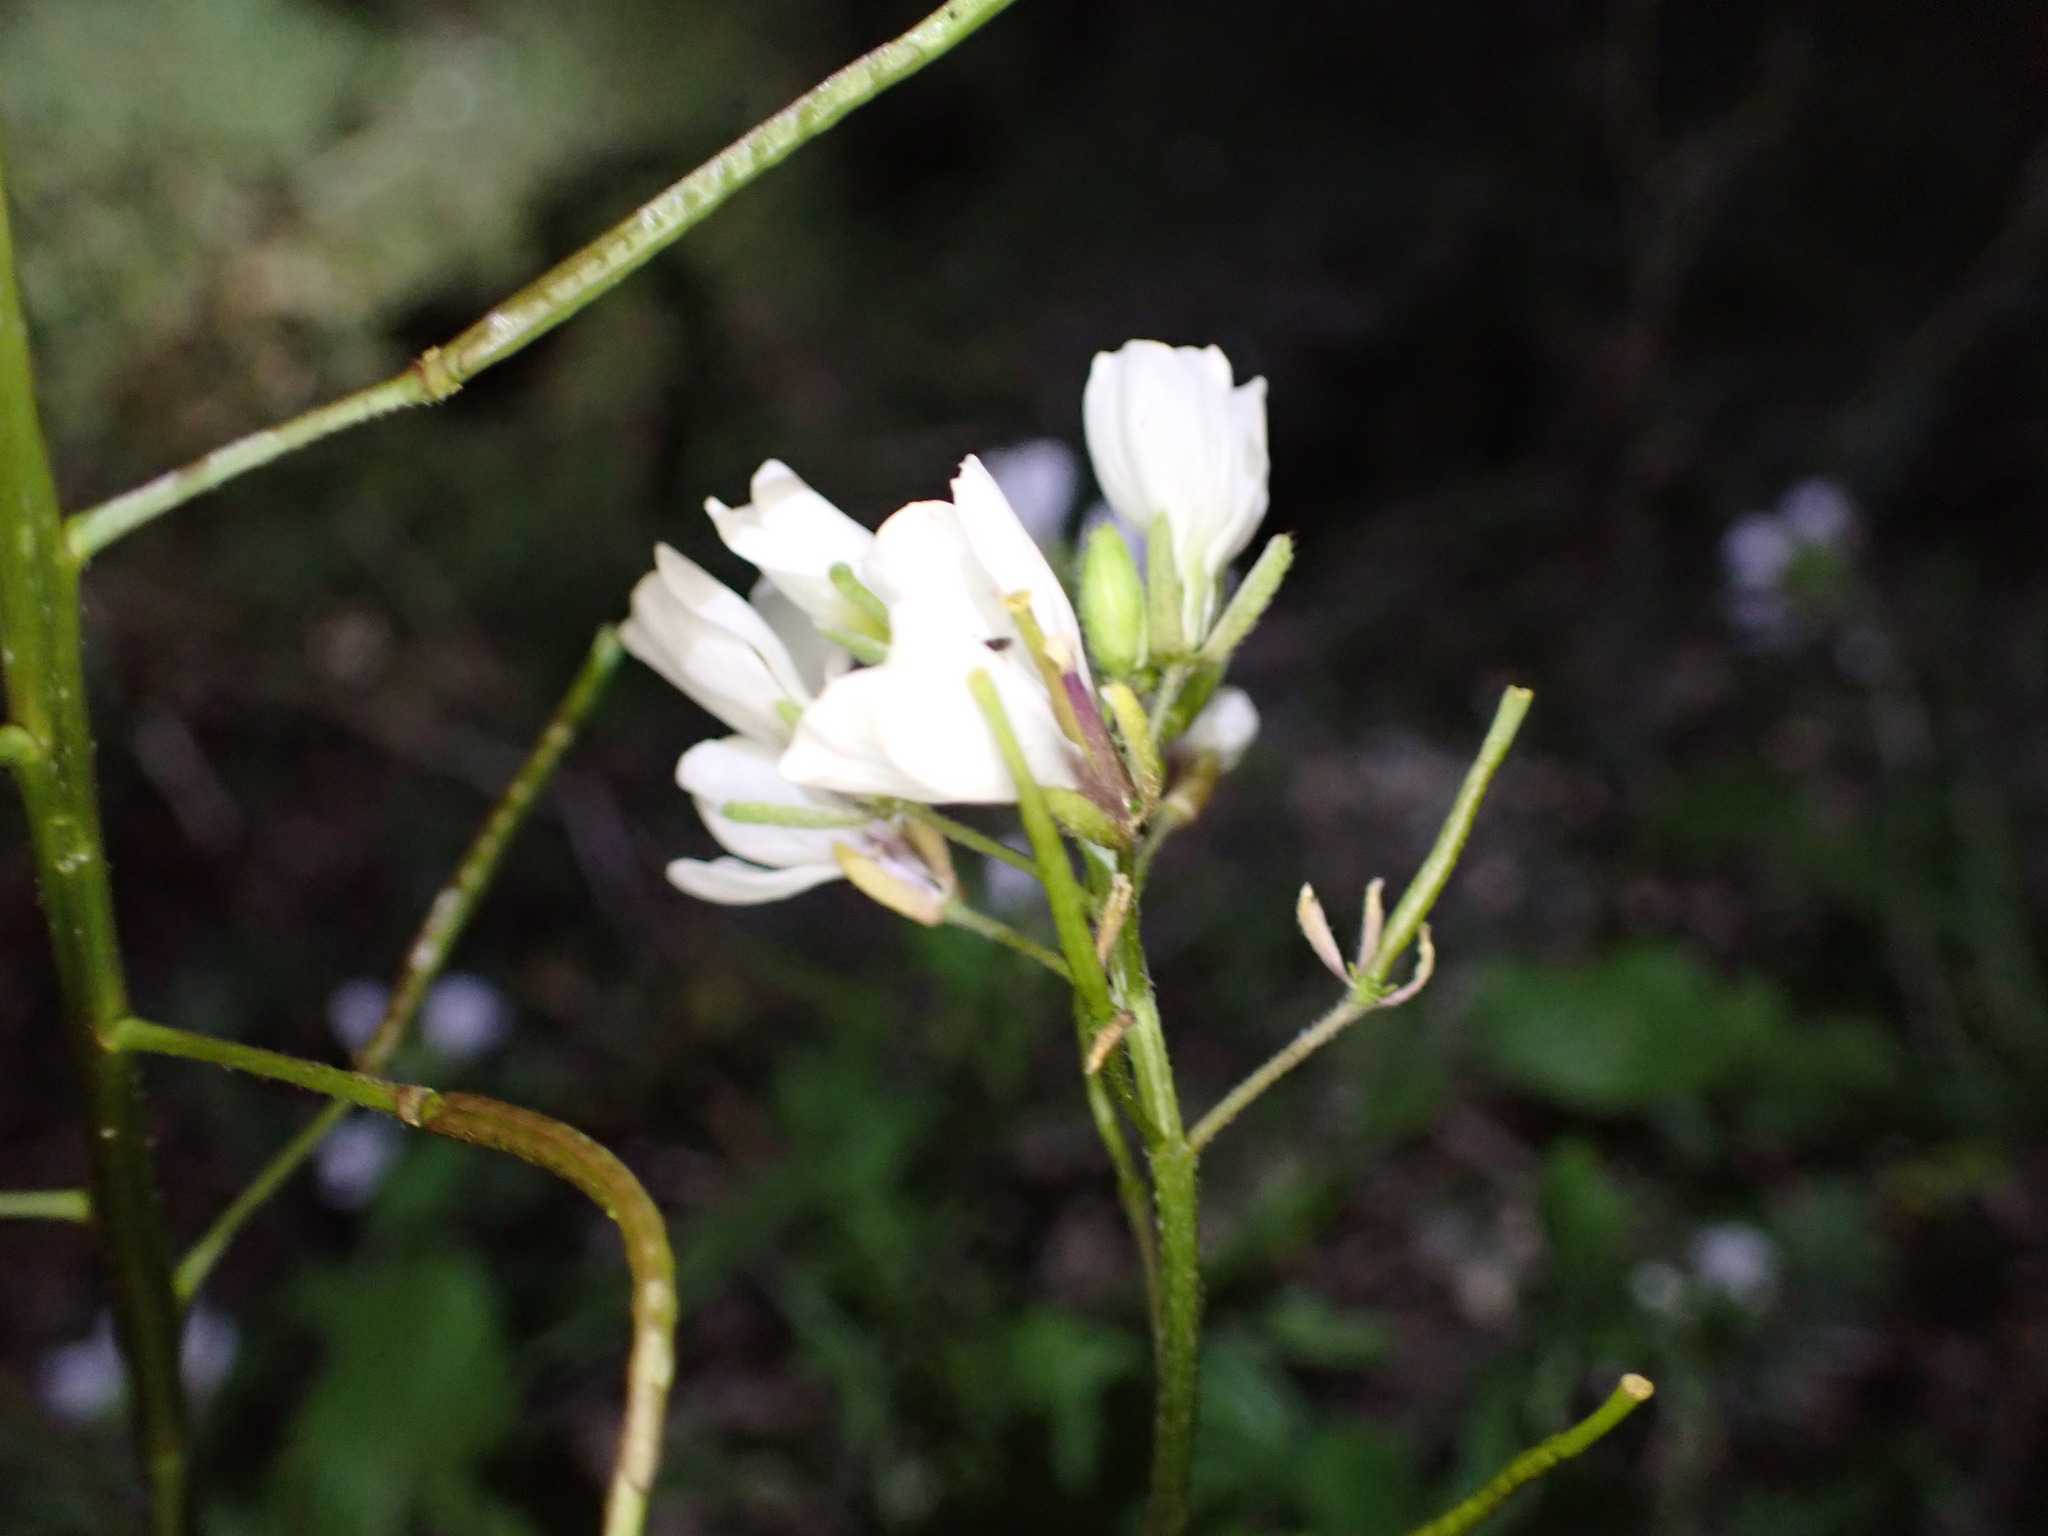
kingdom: Plantae
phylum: Tracheophyta
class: Magnoliopsida
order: Brassicales
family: Brassicaceae
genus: Diplotaxis
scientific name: Diplotaxis erucoides
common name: White rocket
